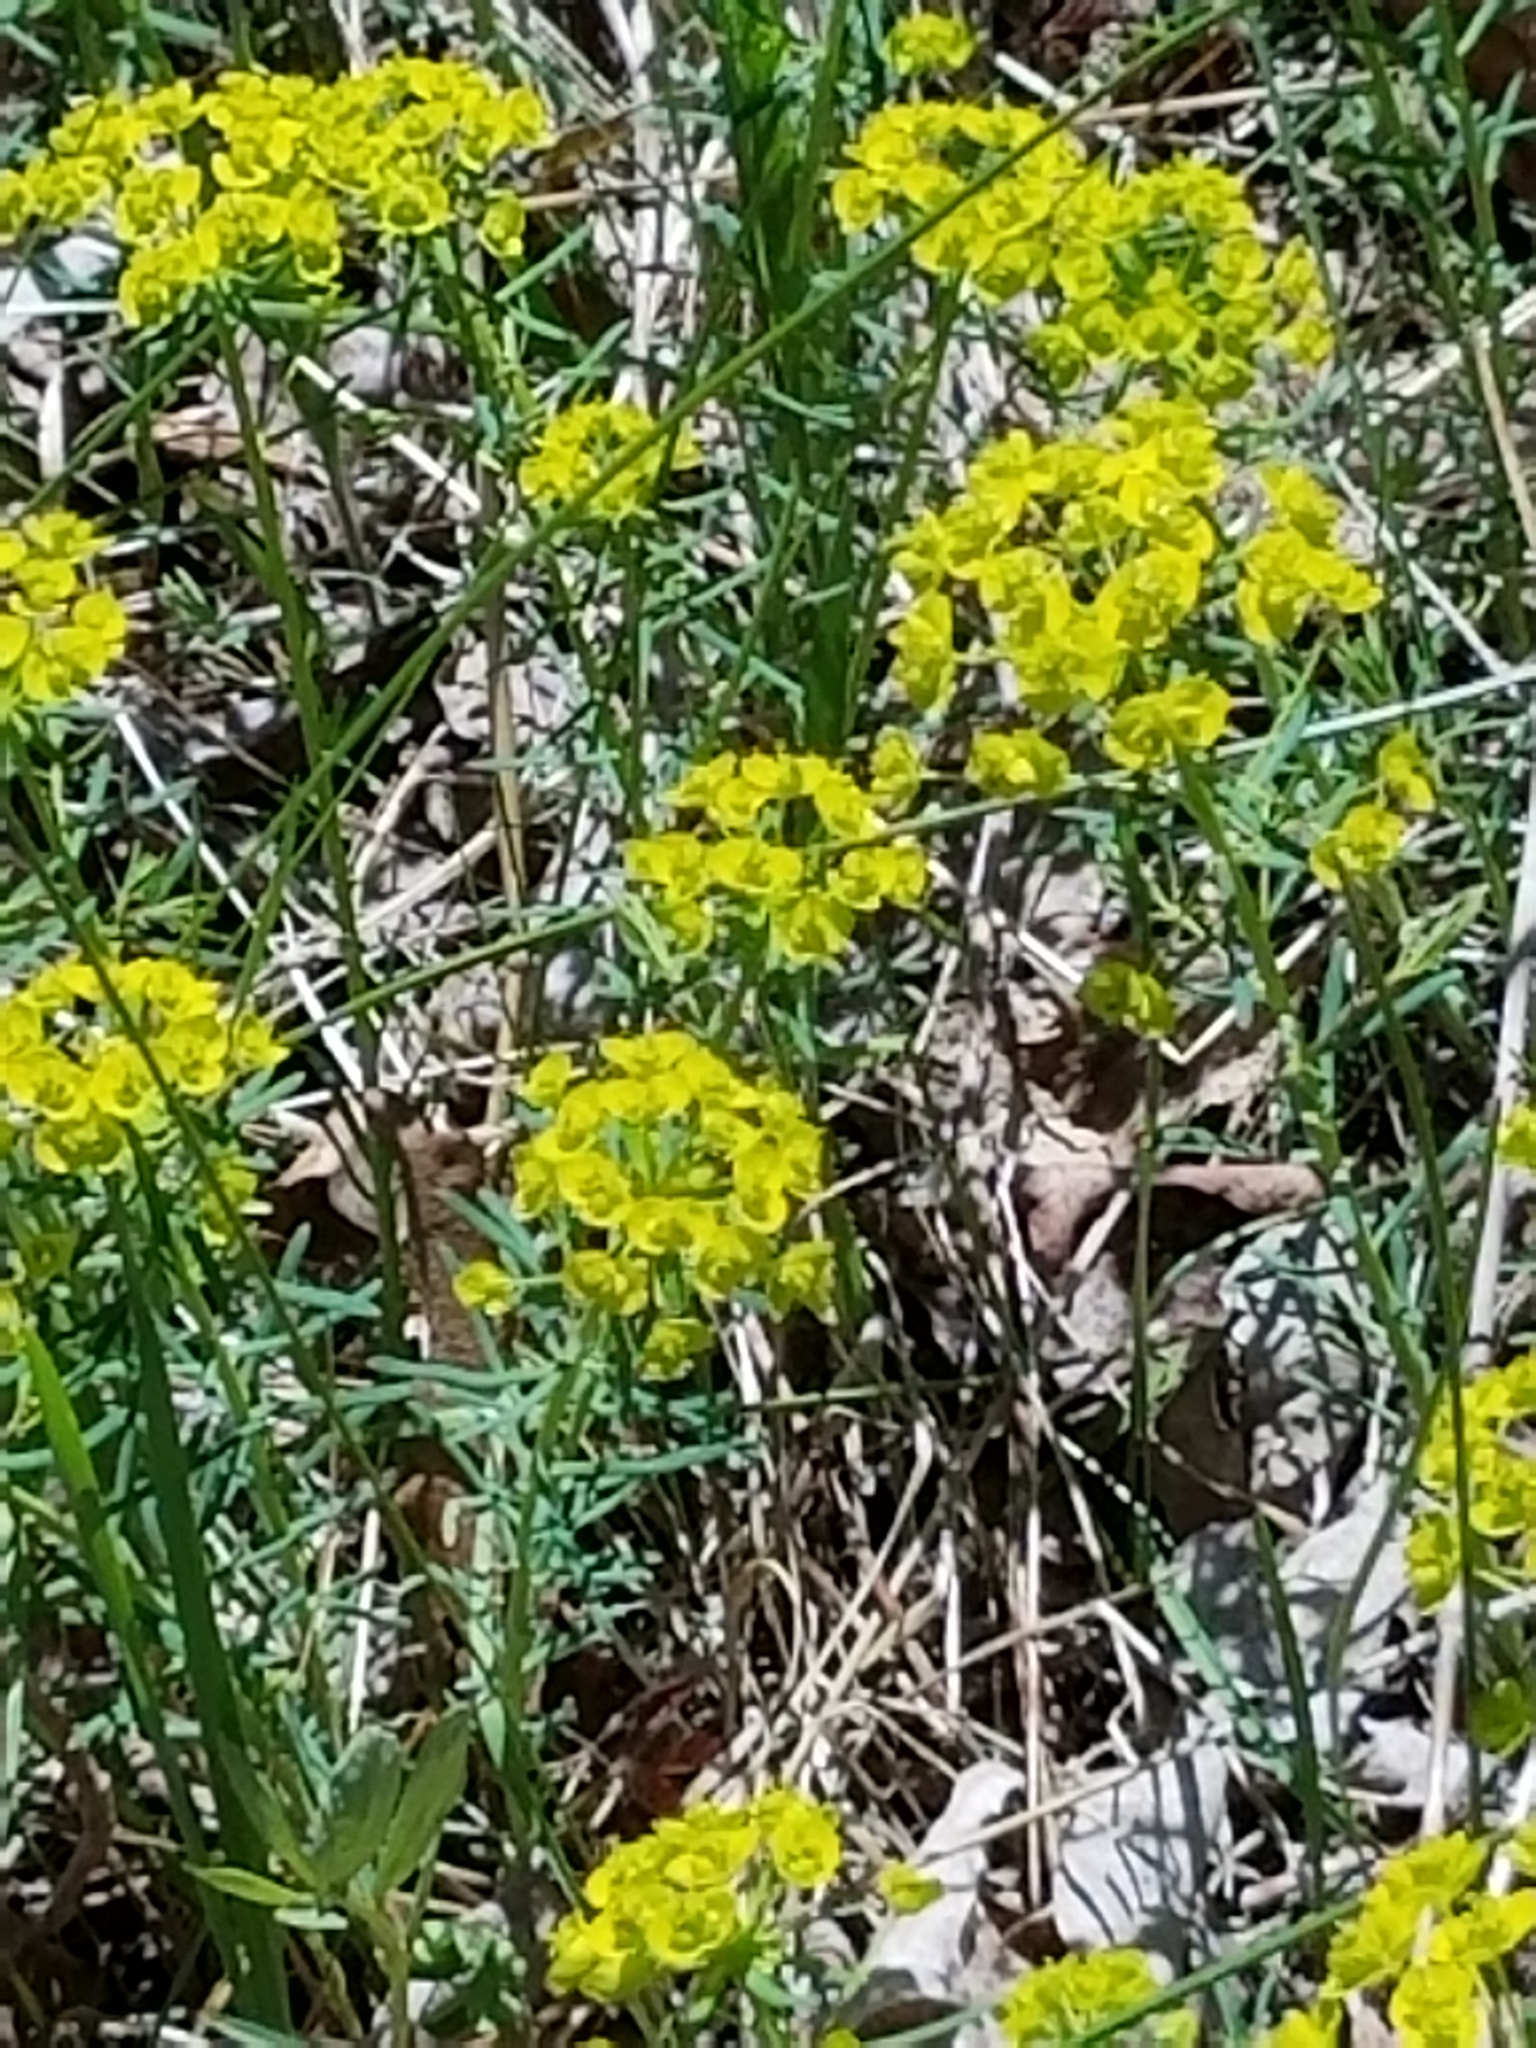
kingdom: Plantae
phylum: Tracheophyta
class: Magnoliopsida
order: Malpighiales
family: Euphorbiaceae
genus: Euphorbia
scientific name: Euphorbia cyparissias
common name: Cypress spurge
